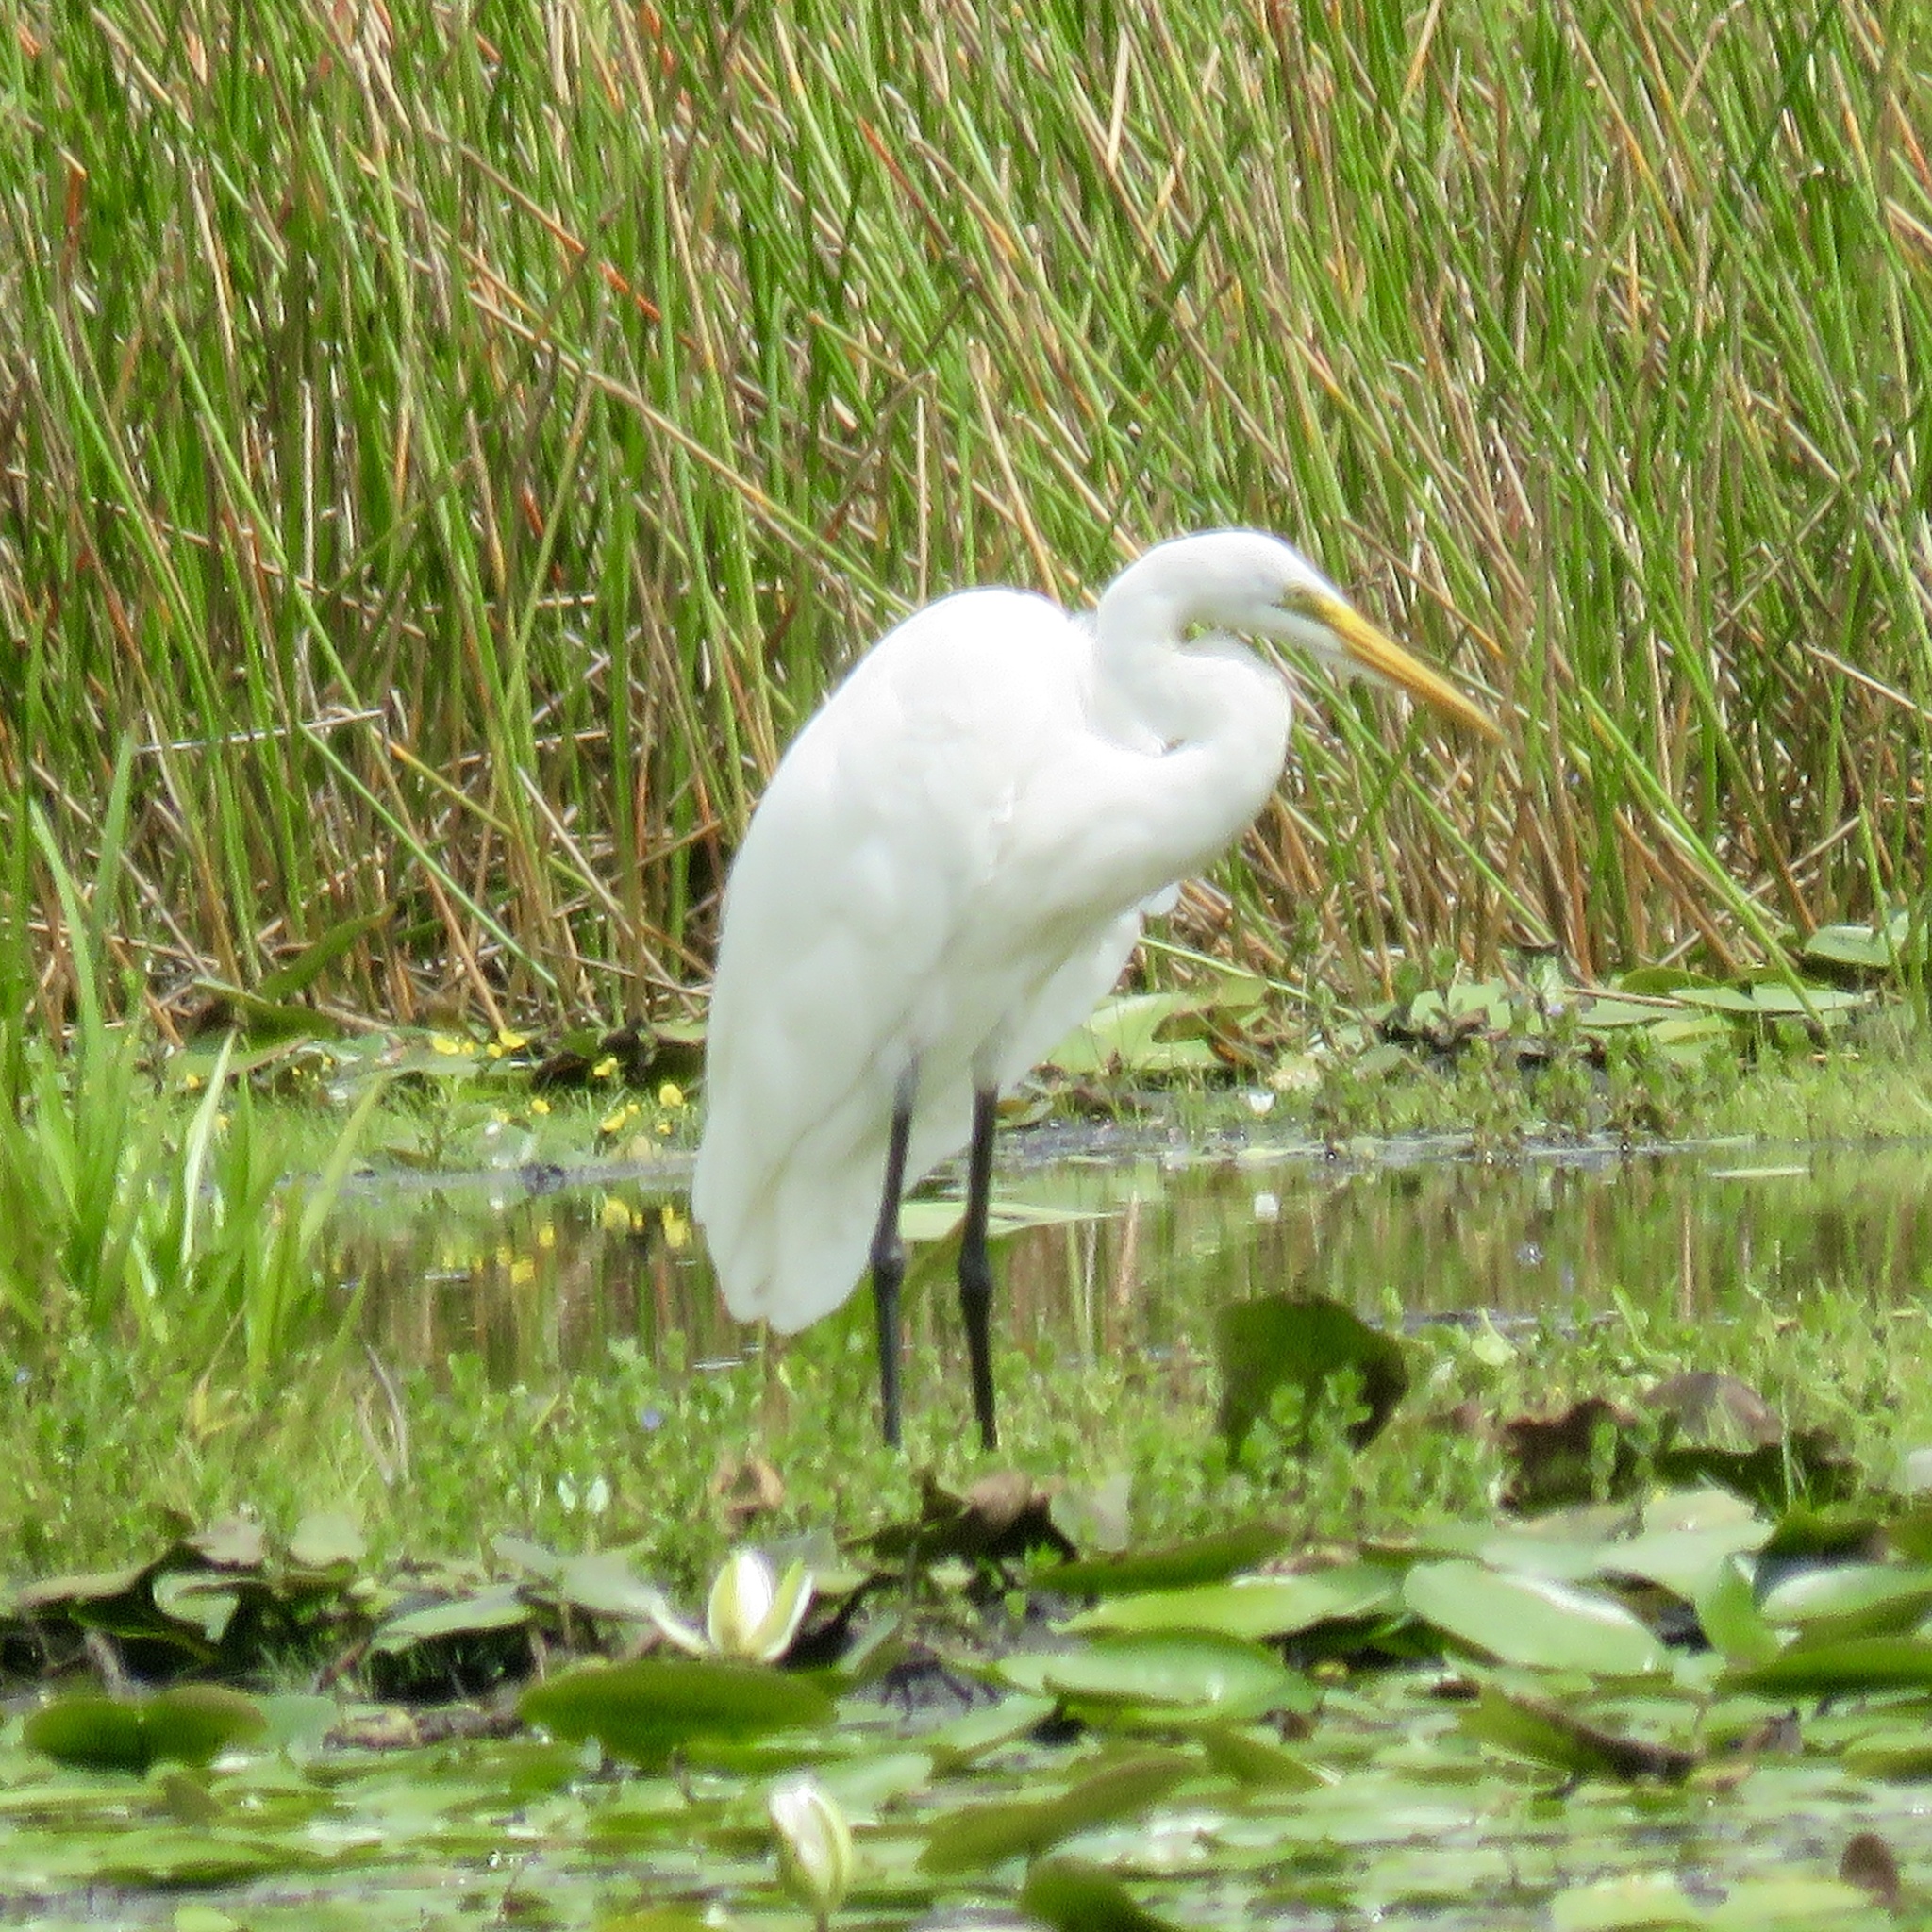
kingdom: Animalia
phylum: Chordata
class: Aves
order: Pelecaniformes
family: Ardeidae
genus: Ardea
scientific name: Ardea alba
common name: Great egret
